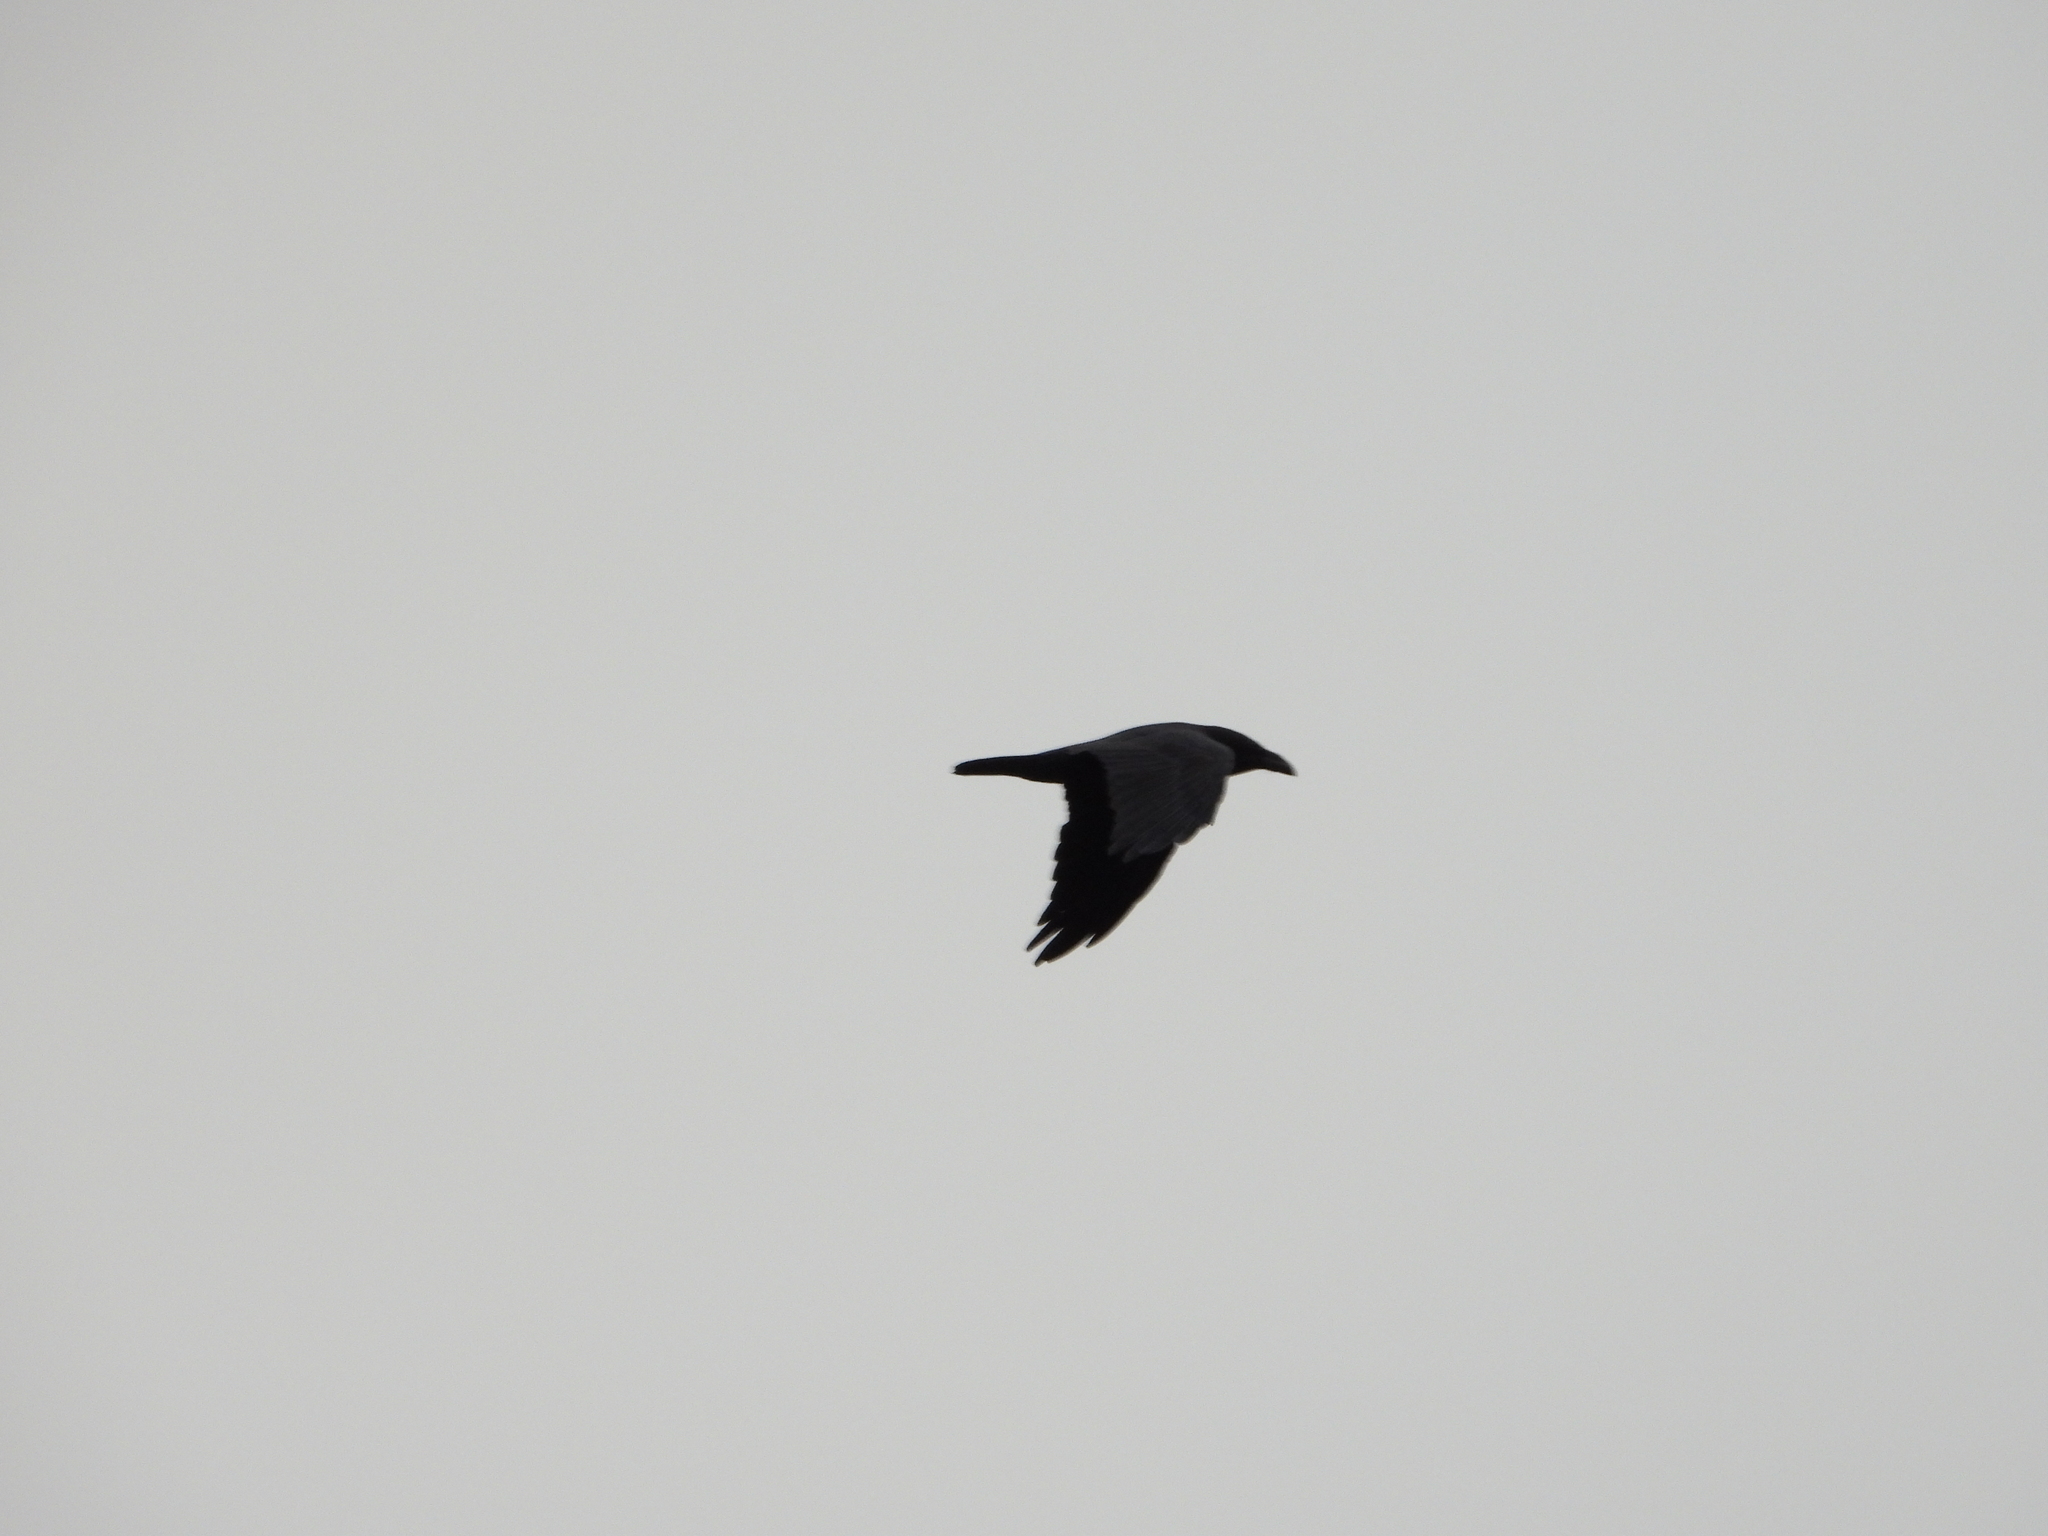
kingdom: Animalia
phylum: Chordata
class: Aves
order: Passeriformes
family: Corvidae
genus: Corvus
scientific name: Corvus corax
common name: Common raven
